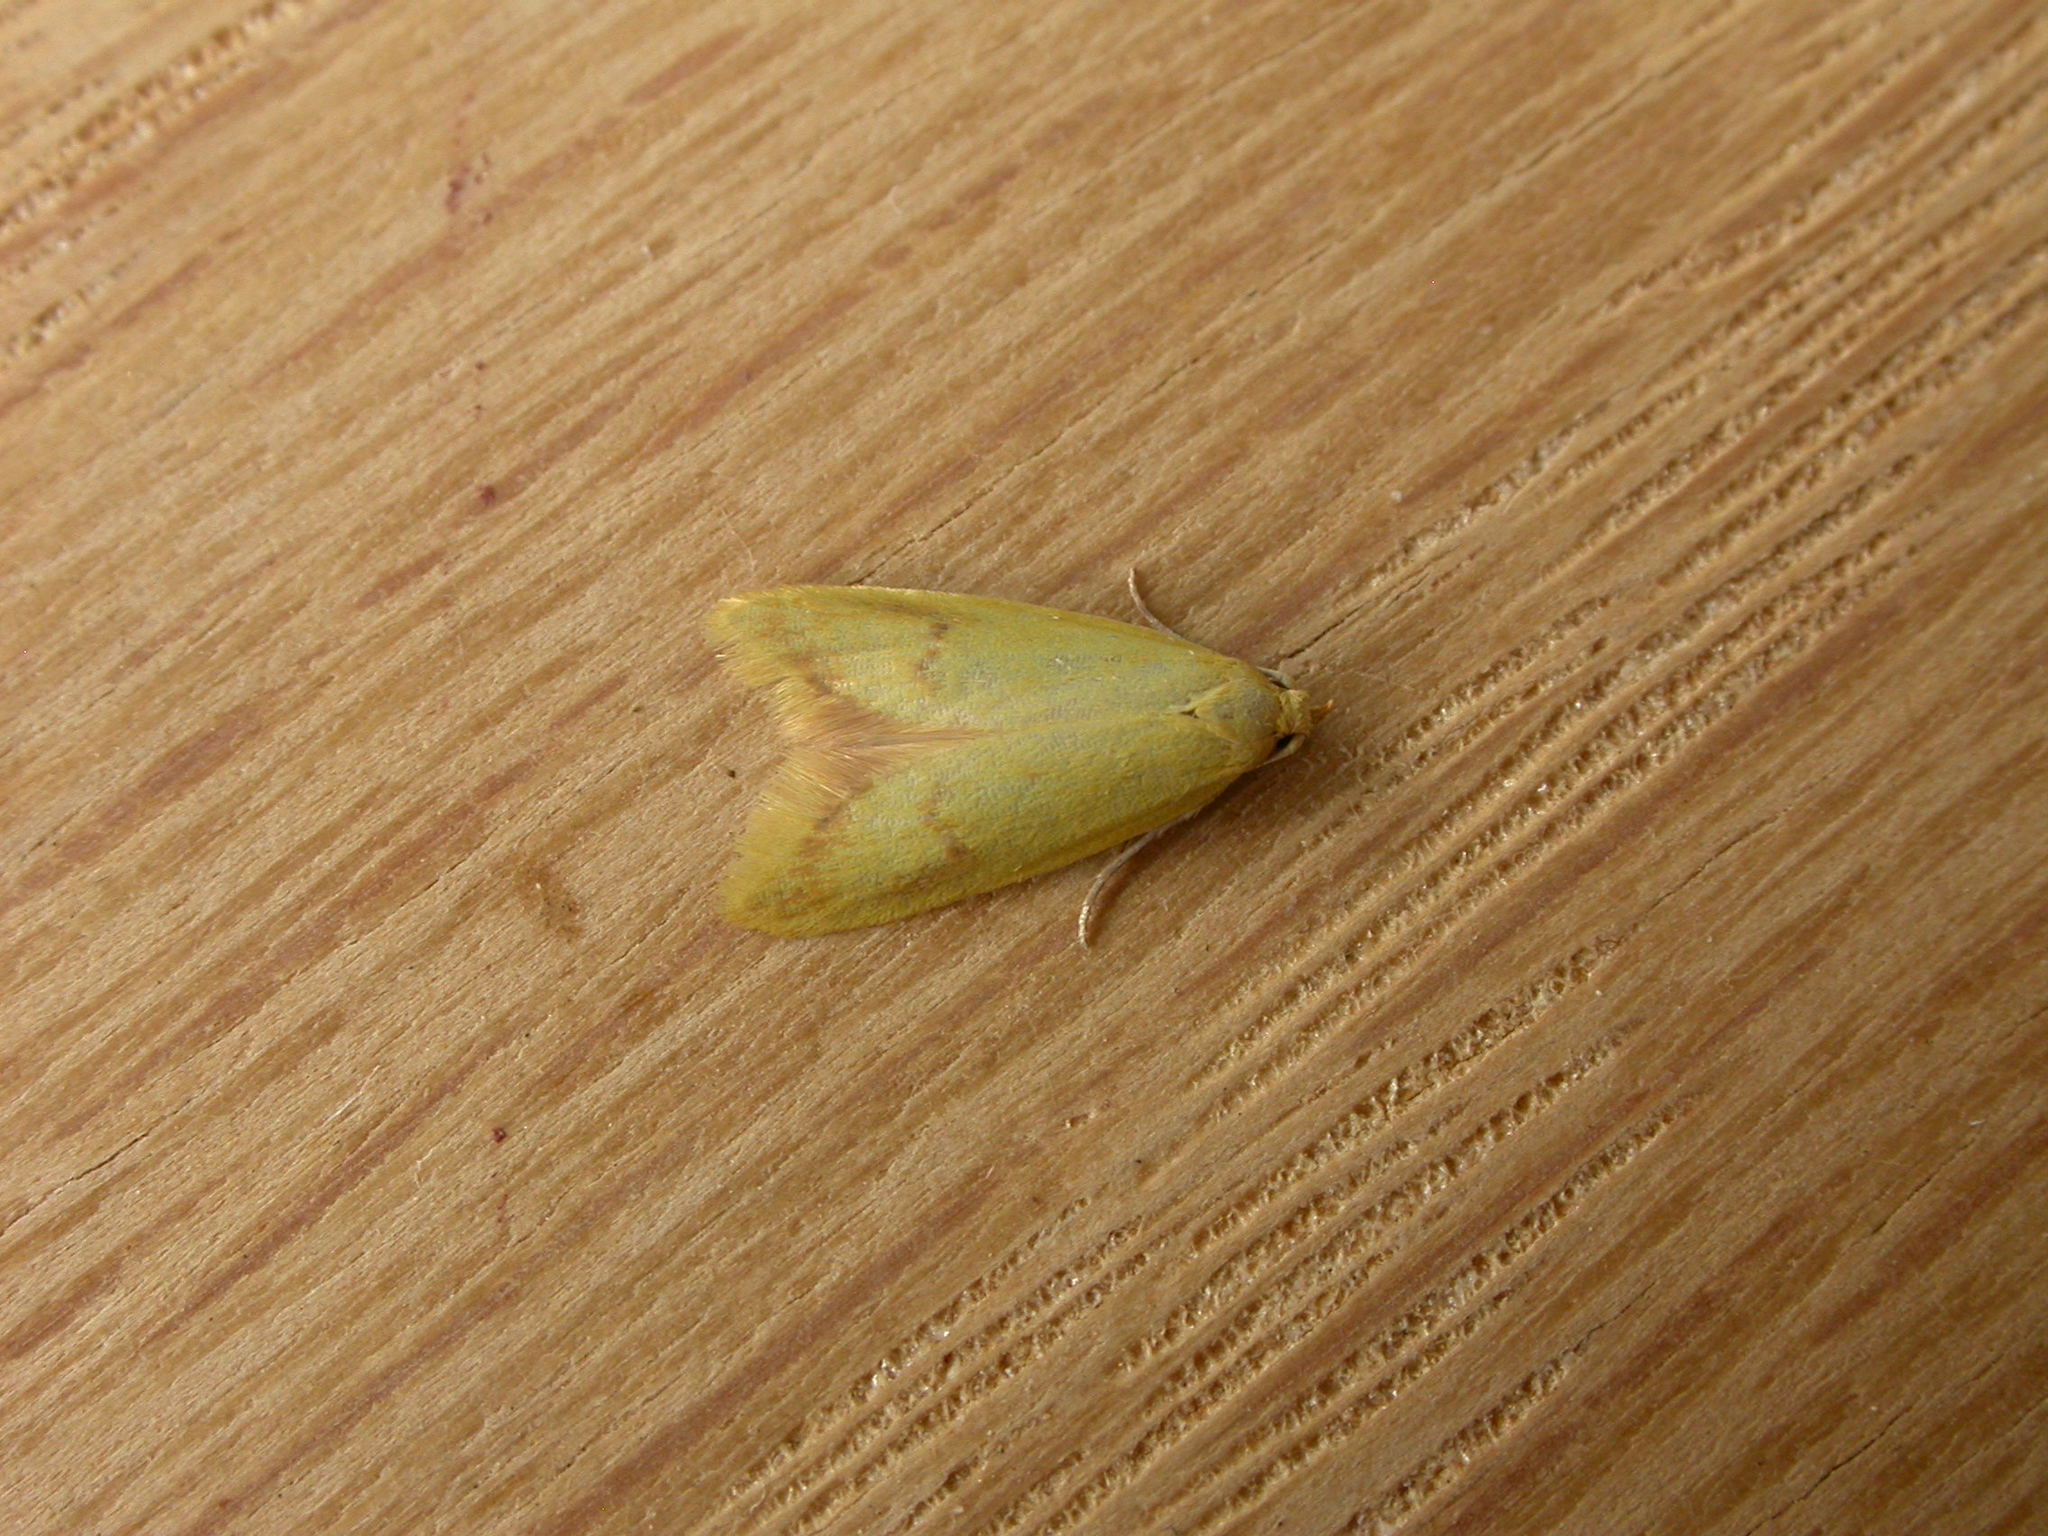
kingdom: Animalia
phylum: Arthropoda
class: Insecta
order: Lepidoptera
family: Oecophoridae
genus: Aeolothapsa
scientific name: Aeolothapsa malacella
